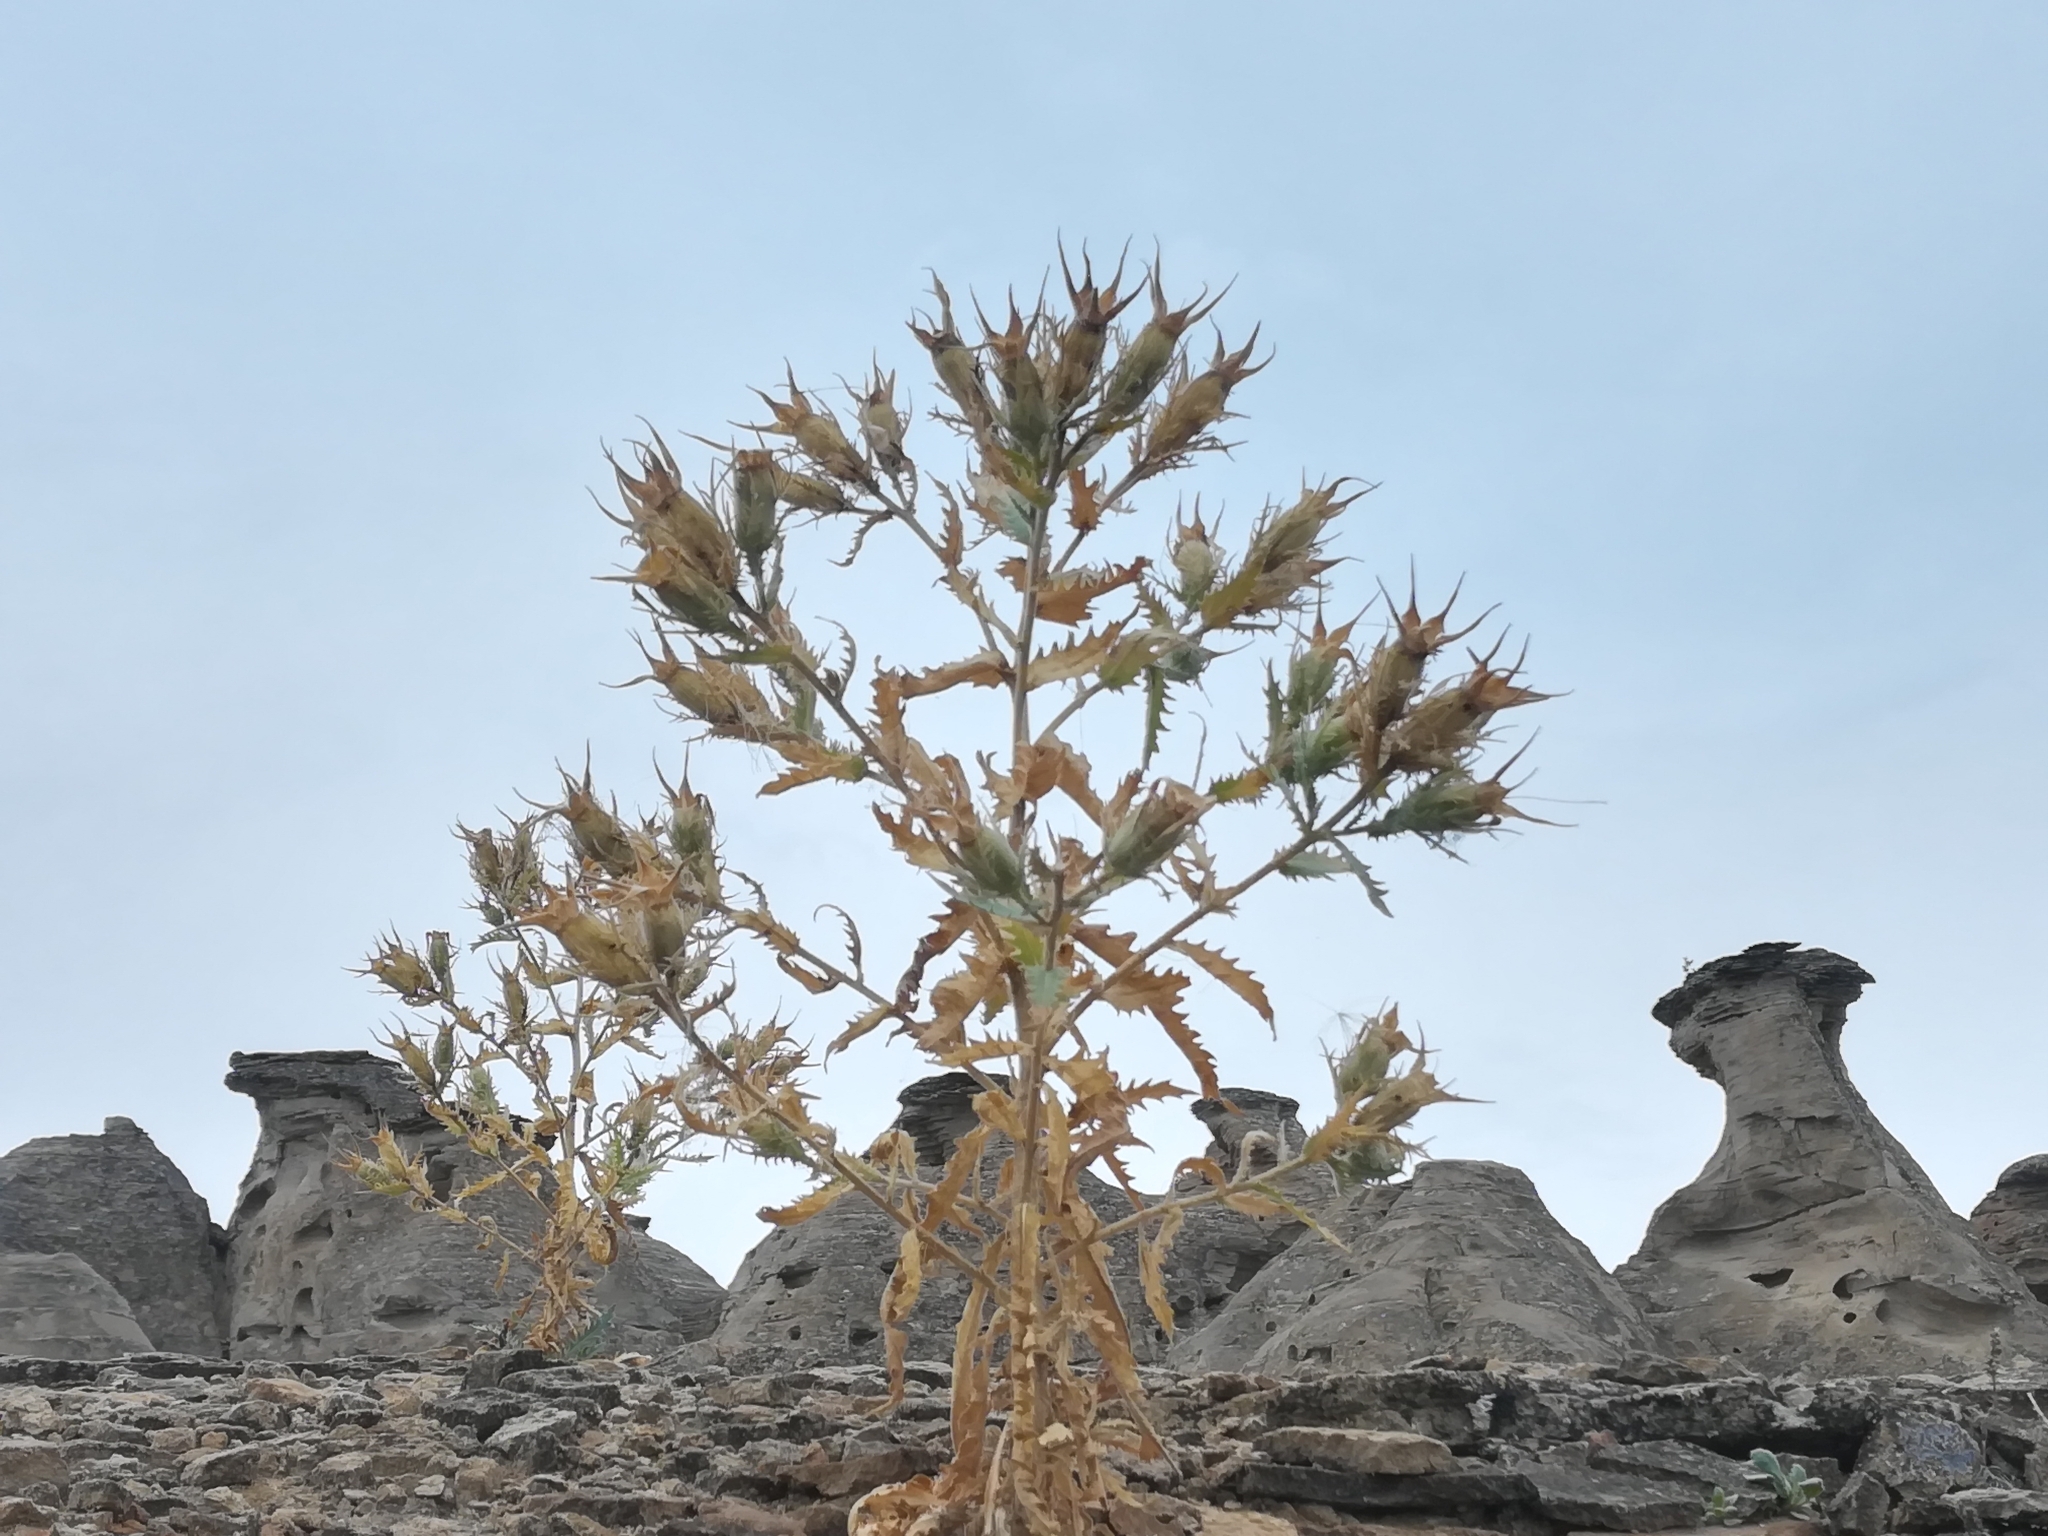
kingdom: Plantae
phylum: Tracheophyta
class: Magnoliopsida
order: Cornales
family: Loasaceae
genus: Mentzelia
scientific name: Mentzelia decapetala
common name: Gumbo-lily
